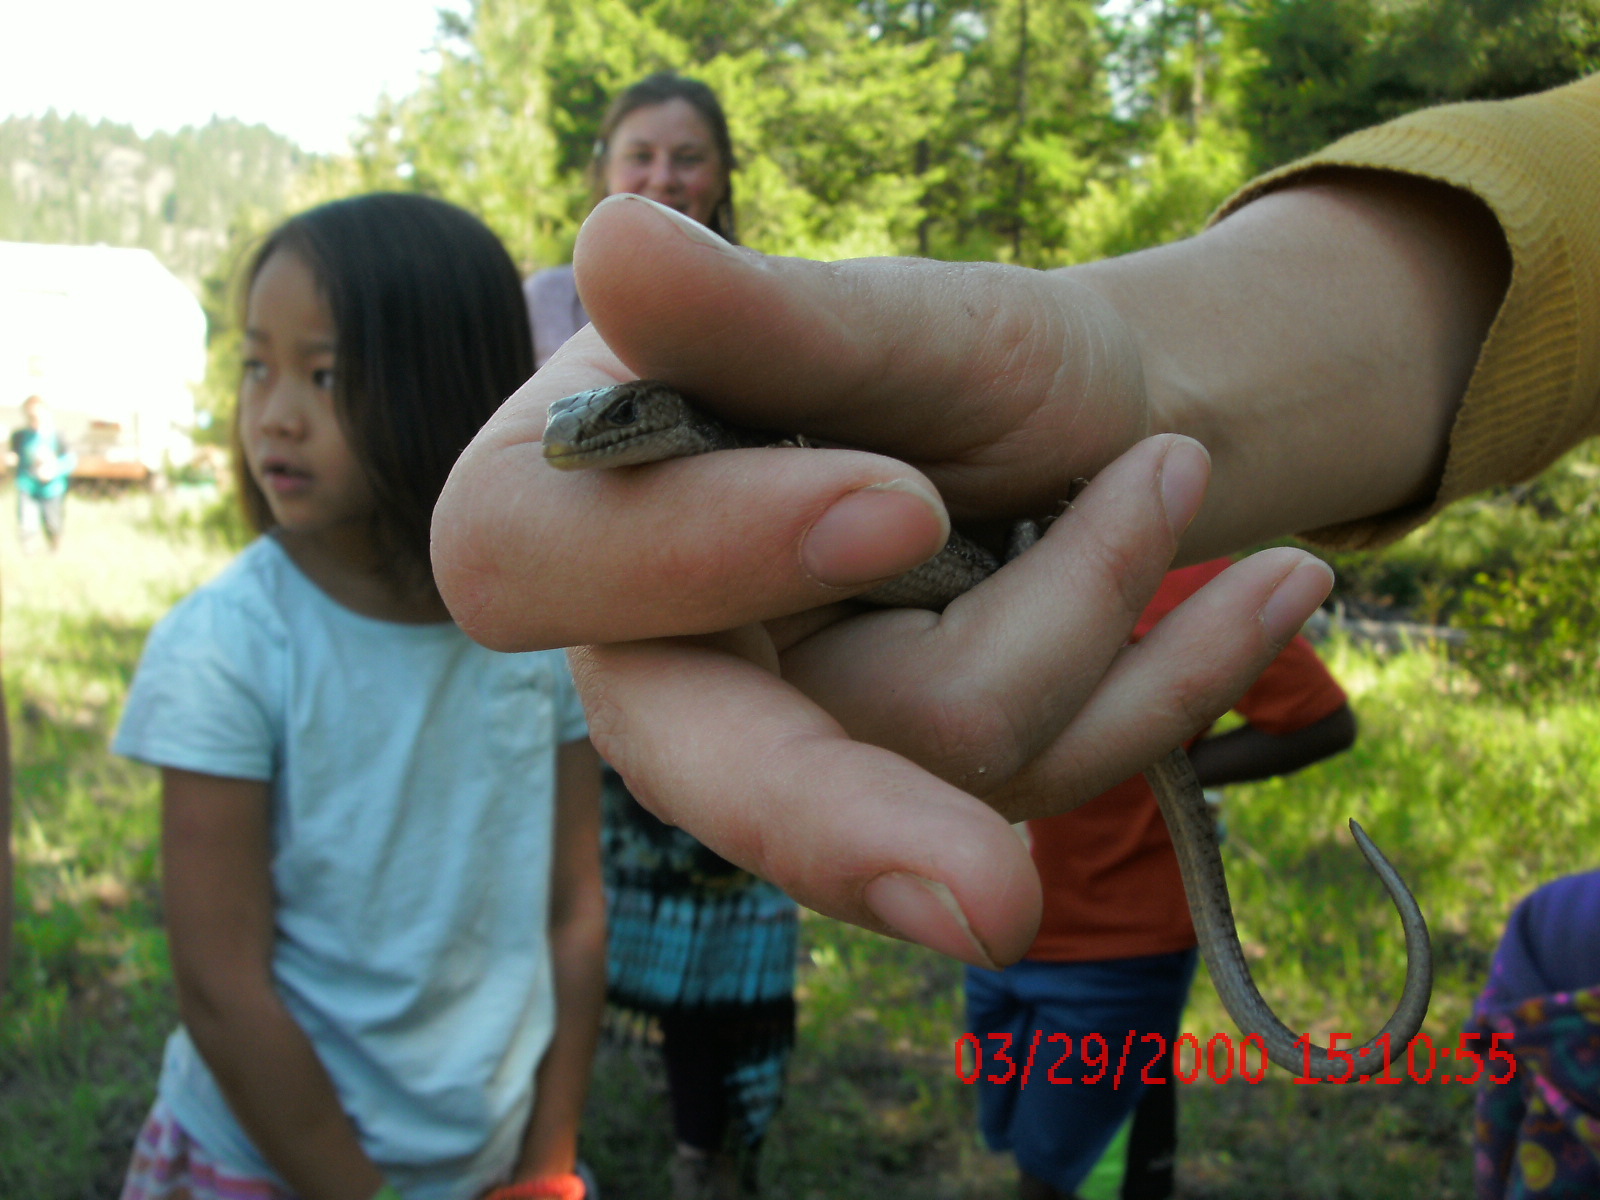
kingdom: Animalia
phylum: Chordata
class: Squamata
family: Anguidae
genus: Elgaria
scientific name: Elgaria coerulea
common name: Northern alligator lizard
